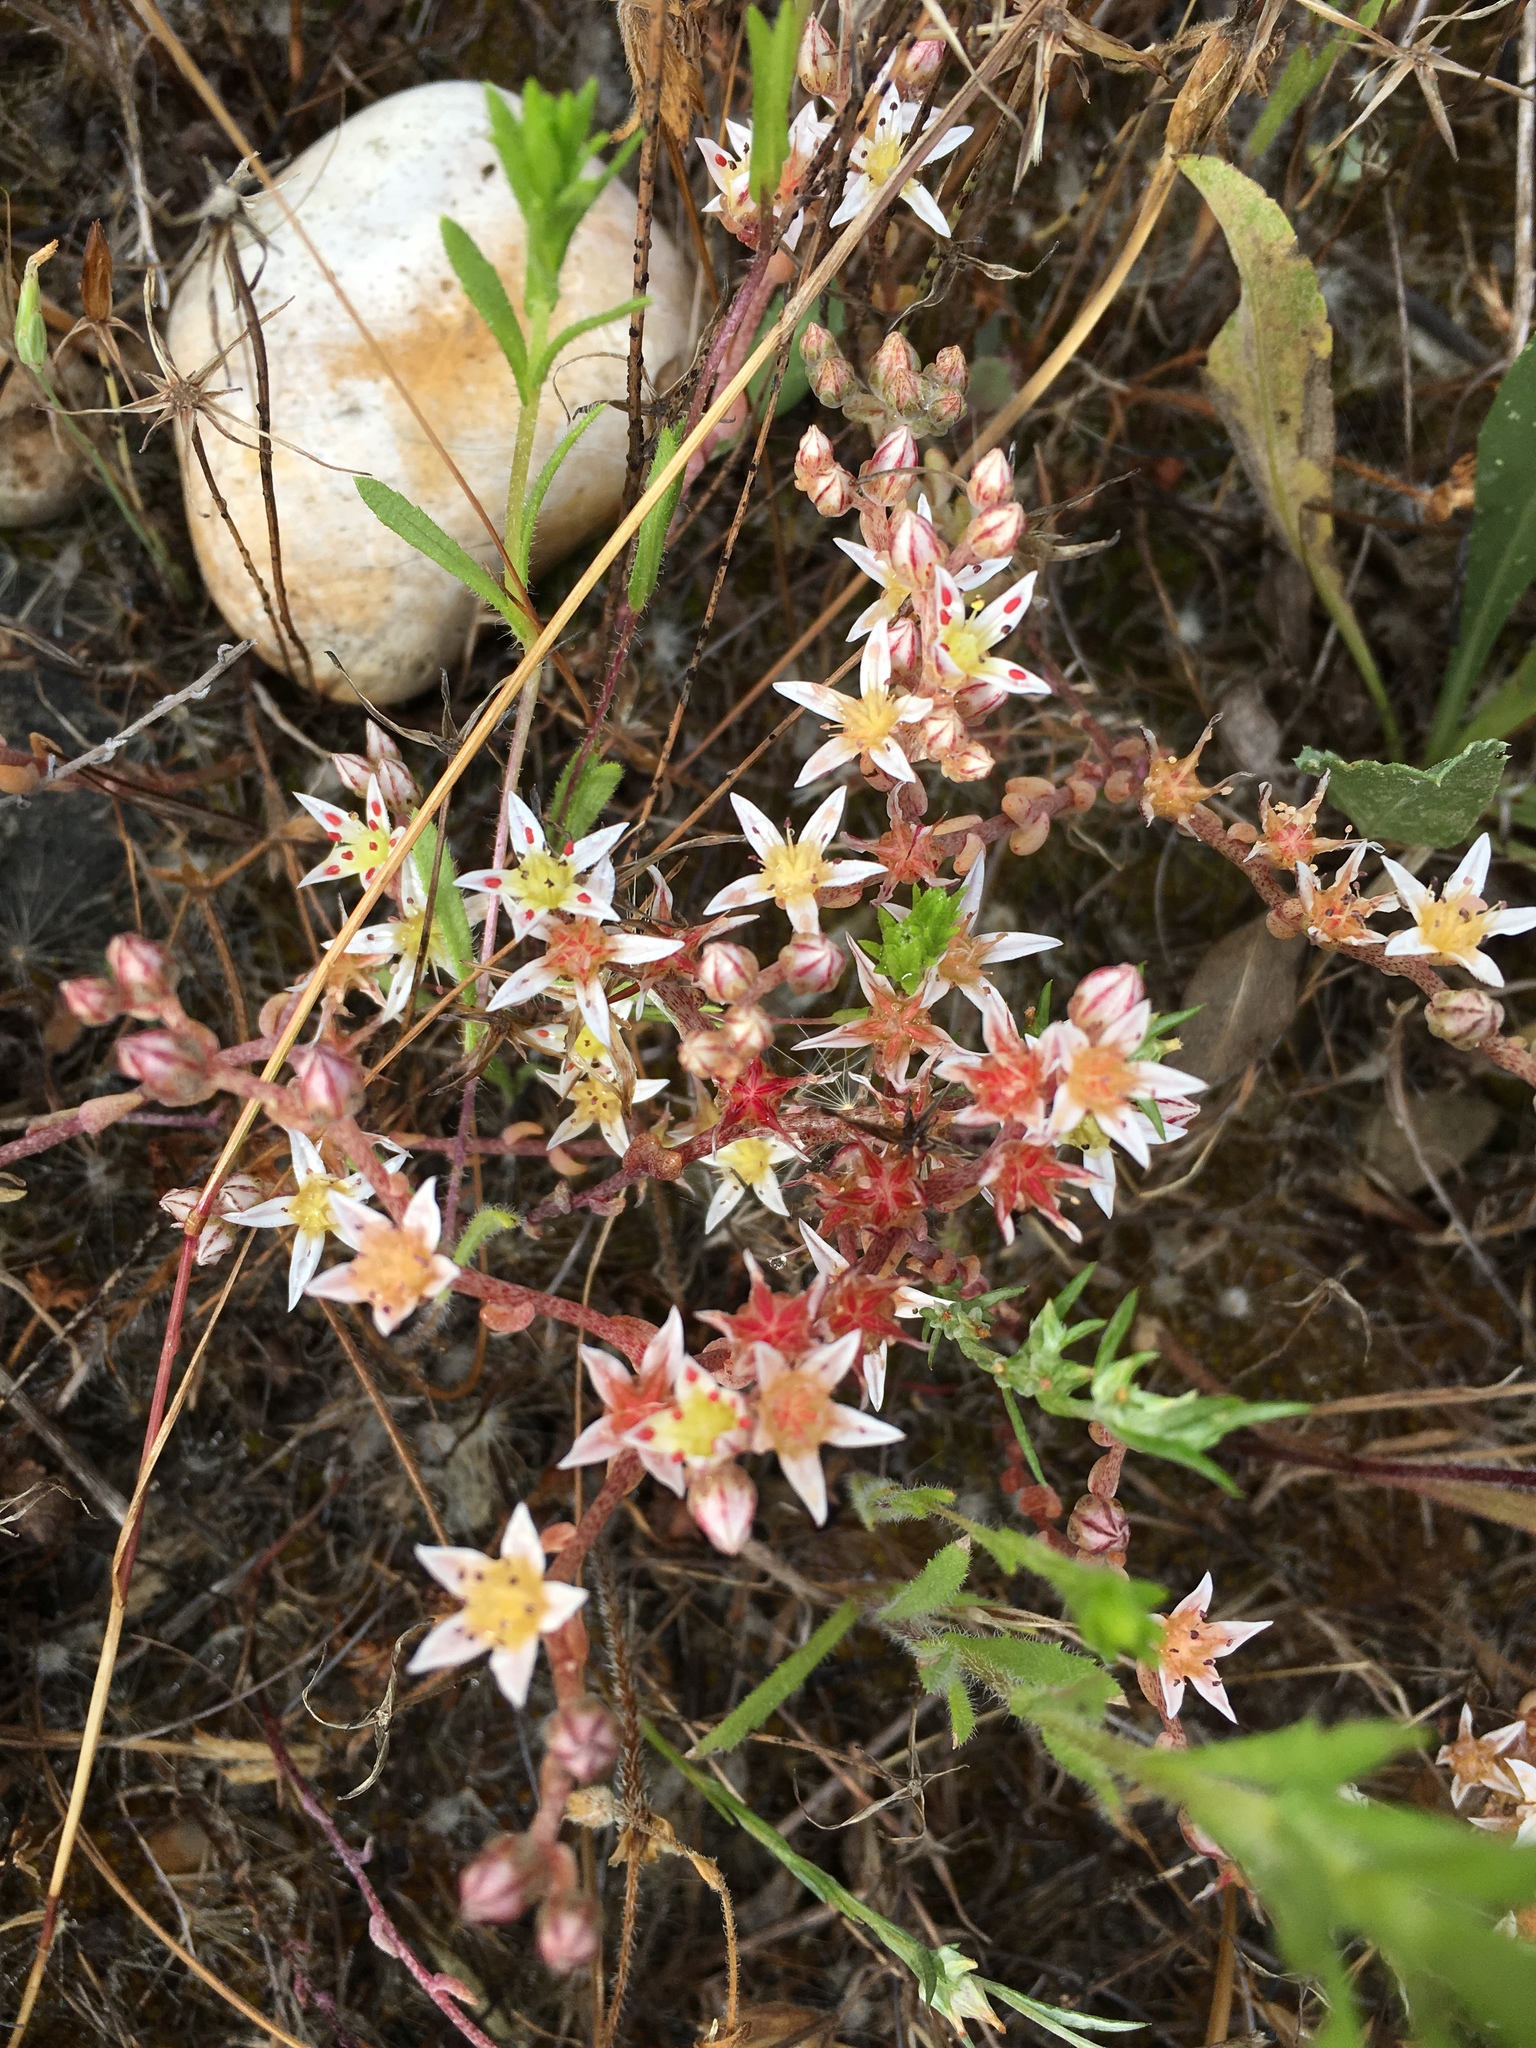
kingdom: Plantae
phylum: Tracheophyta
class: Magnoliopsida
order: Saxifragales
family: Crassulaceae
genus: Dudleya
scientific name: Dudleya blochmaniae
